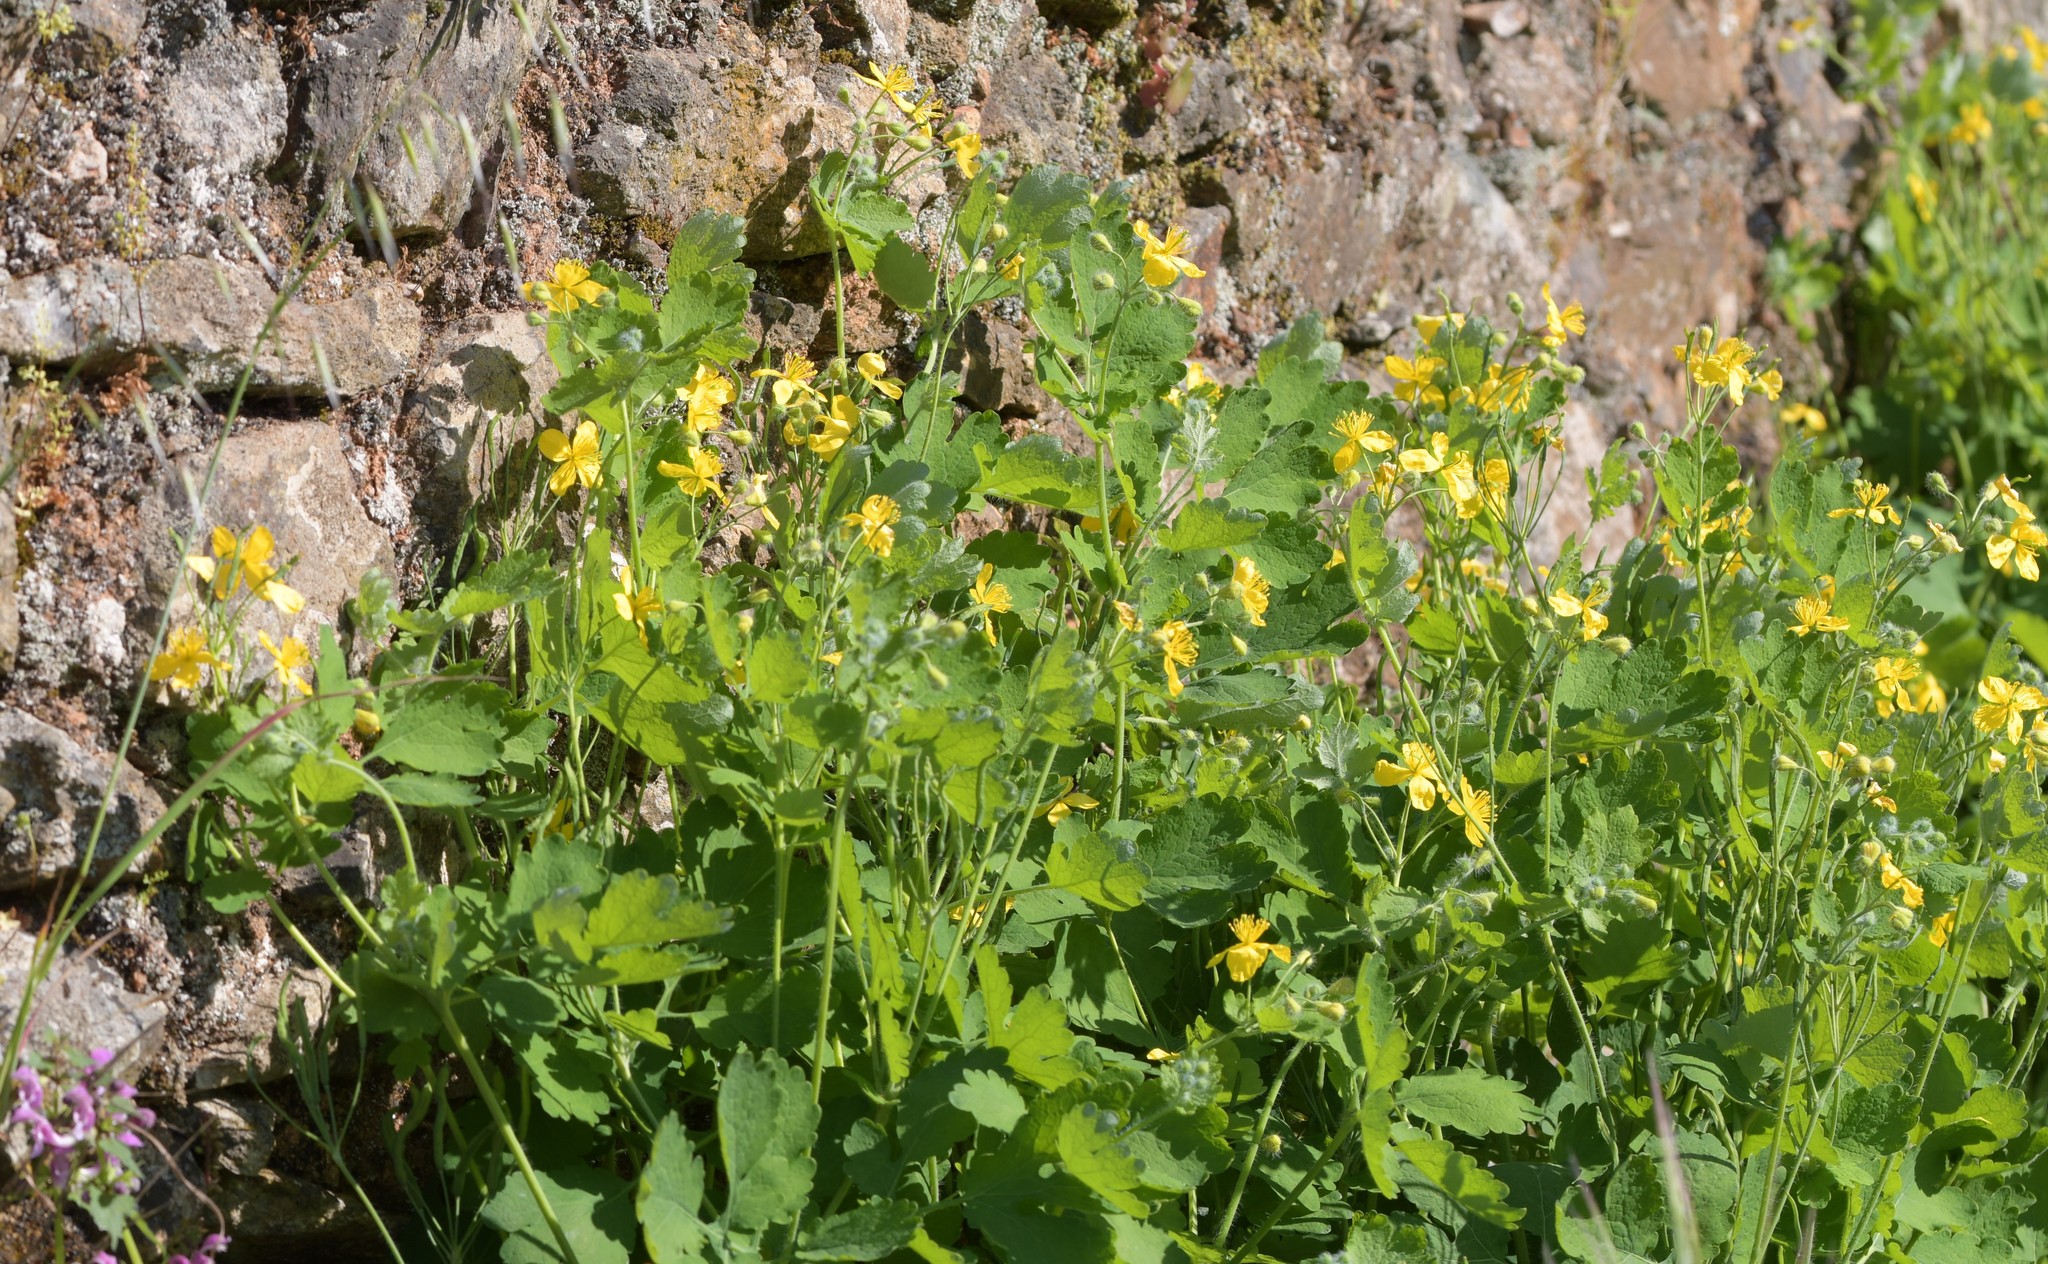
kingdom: Plantae
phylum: Tracheophyta
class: Magnoliopsida
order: Ranunculales
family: Papaveraceae
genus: Chelidonium
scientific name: Chelidonium majus
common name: Greater celandine
